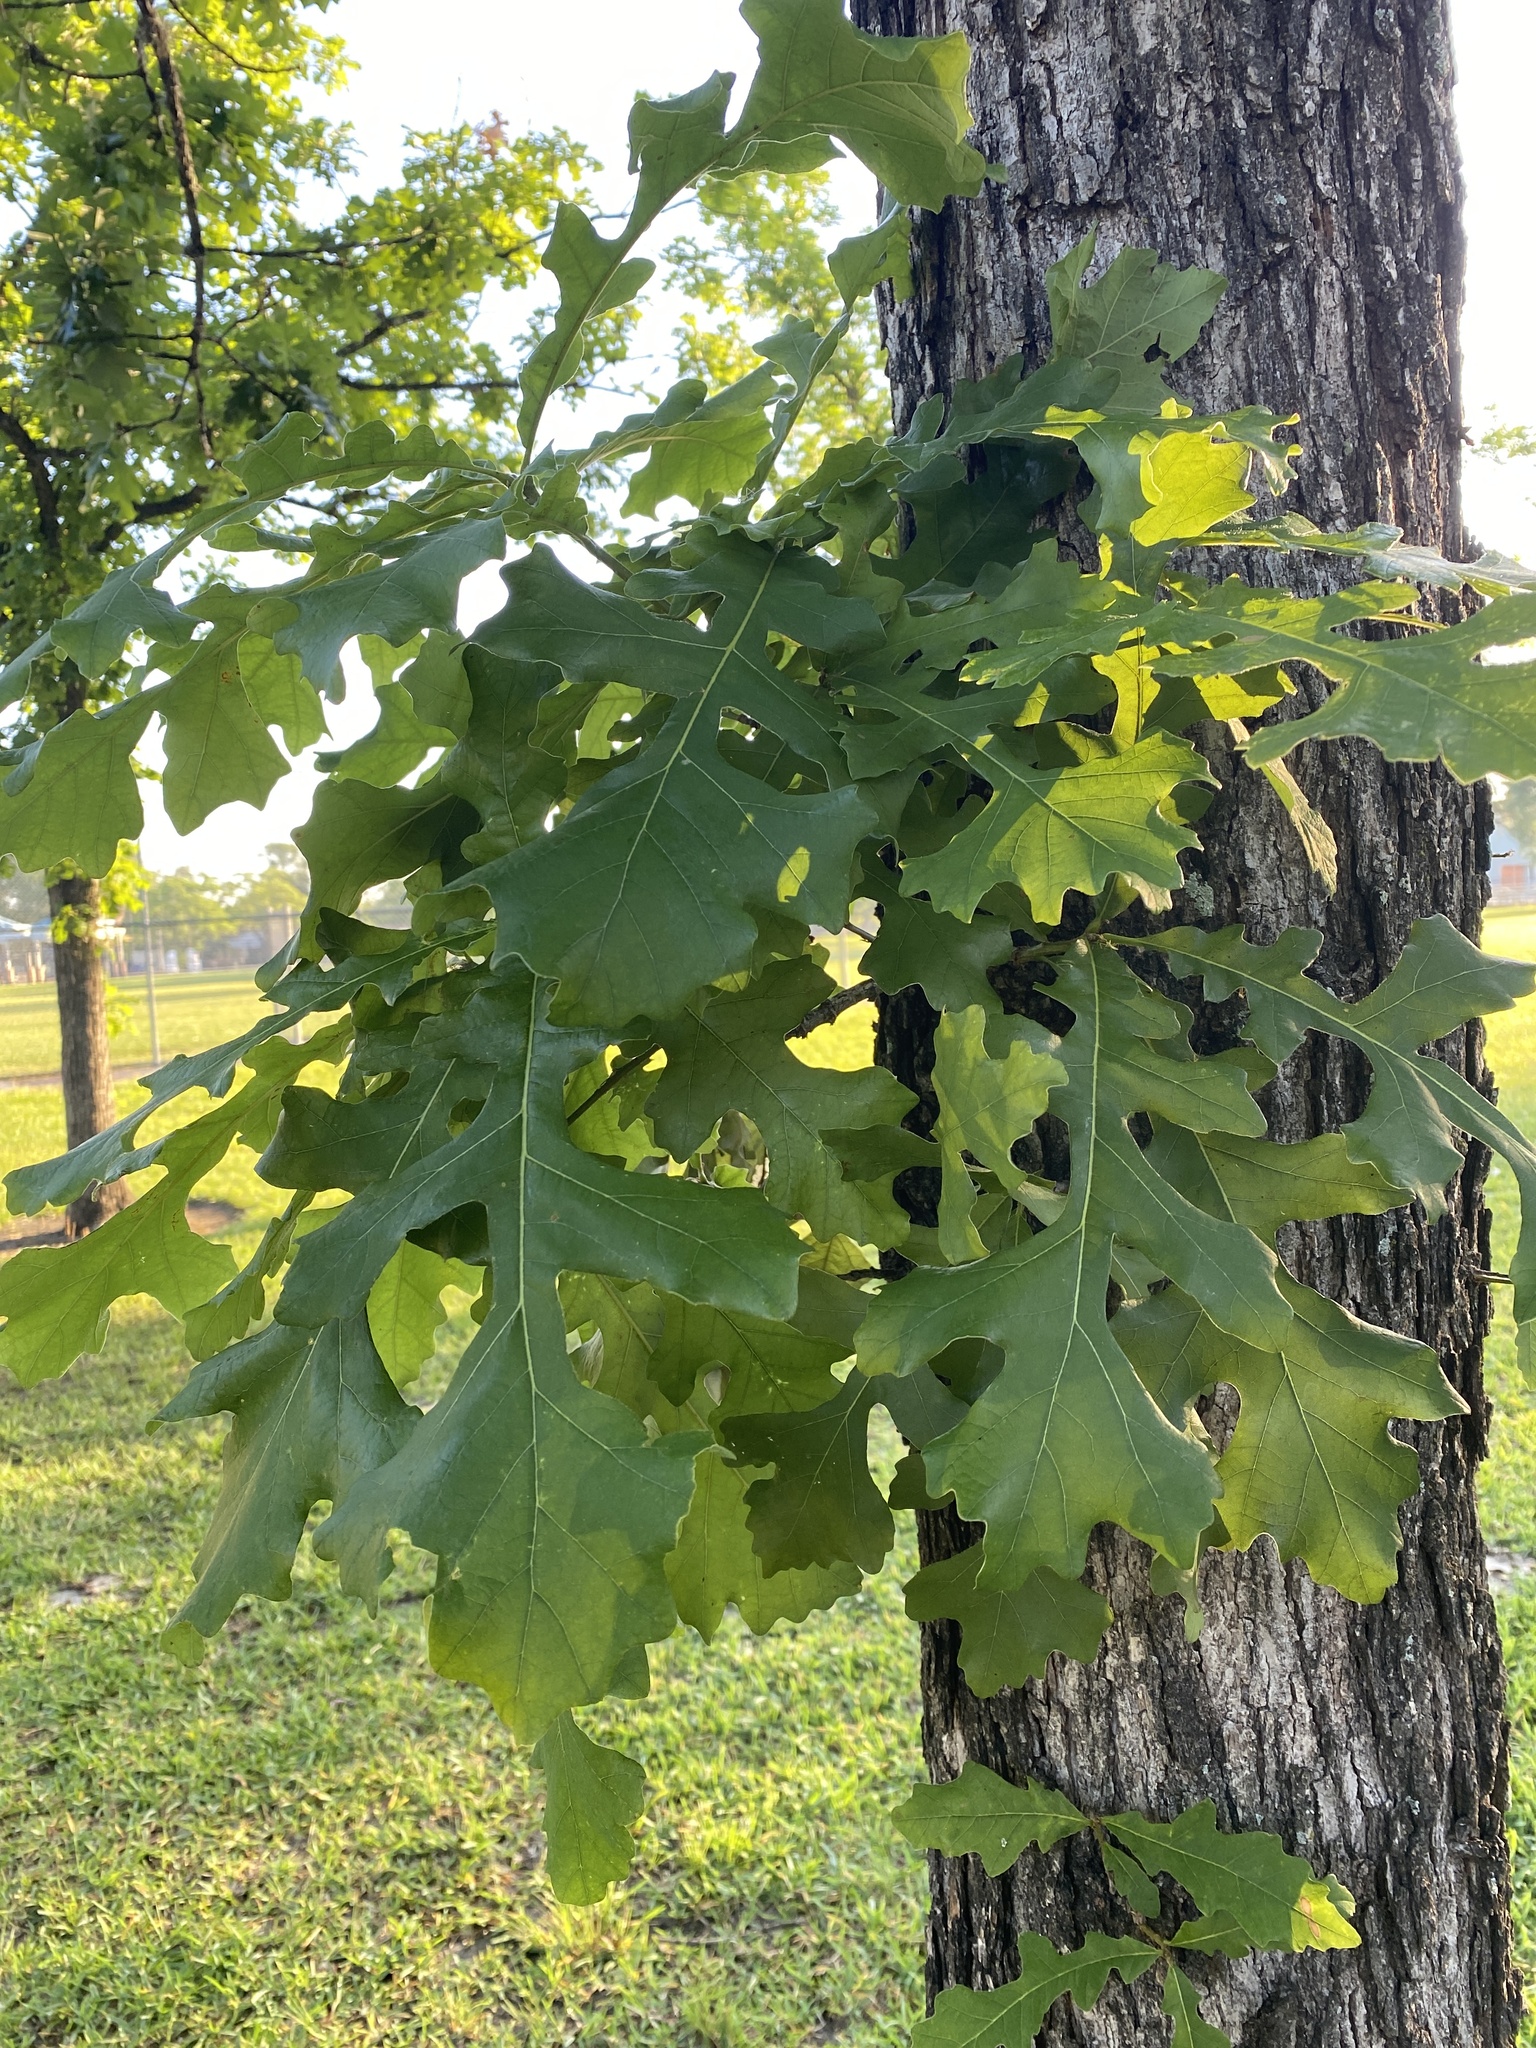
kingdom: Plantae
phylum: Tracheophyta
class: Magnoliopsida
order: Fagales
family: Fagaceae
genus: Quercus
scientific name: Quercus macrocarpa
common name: Bur oak
